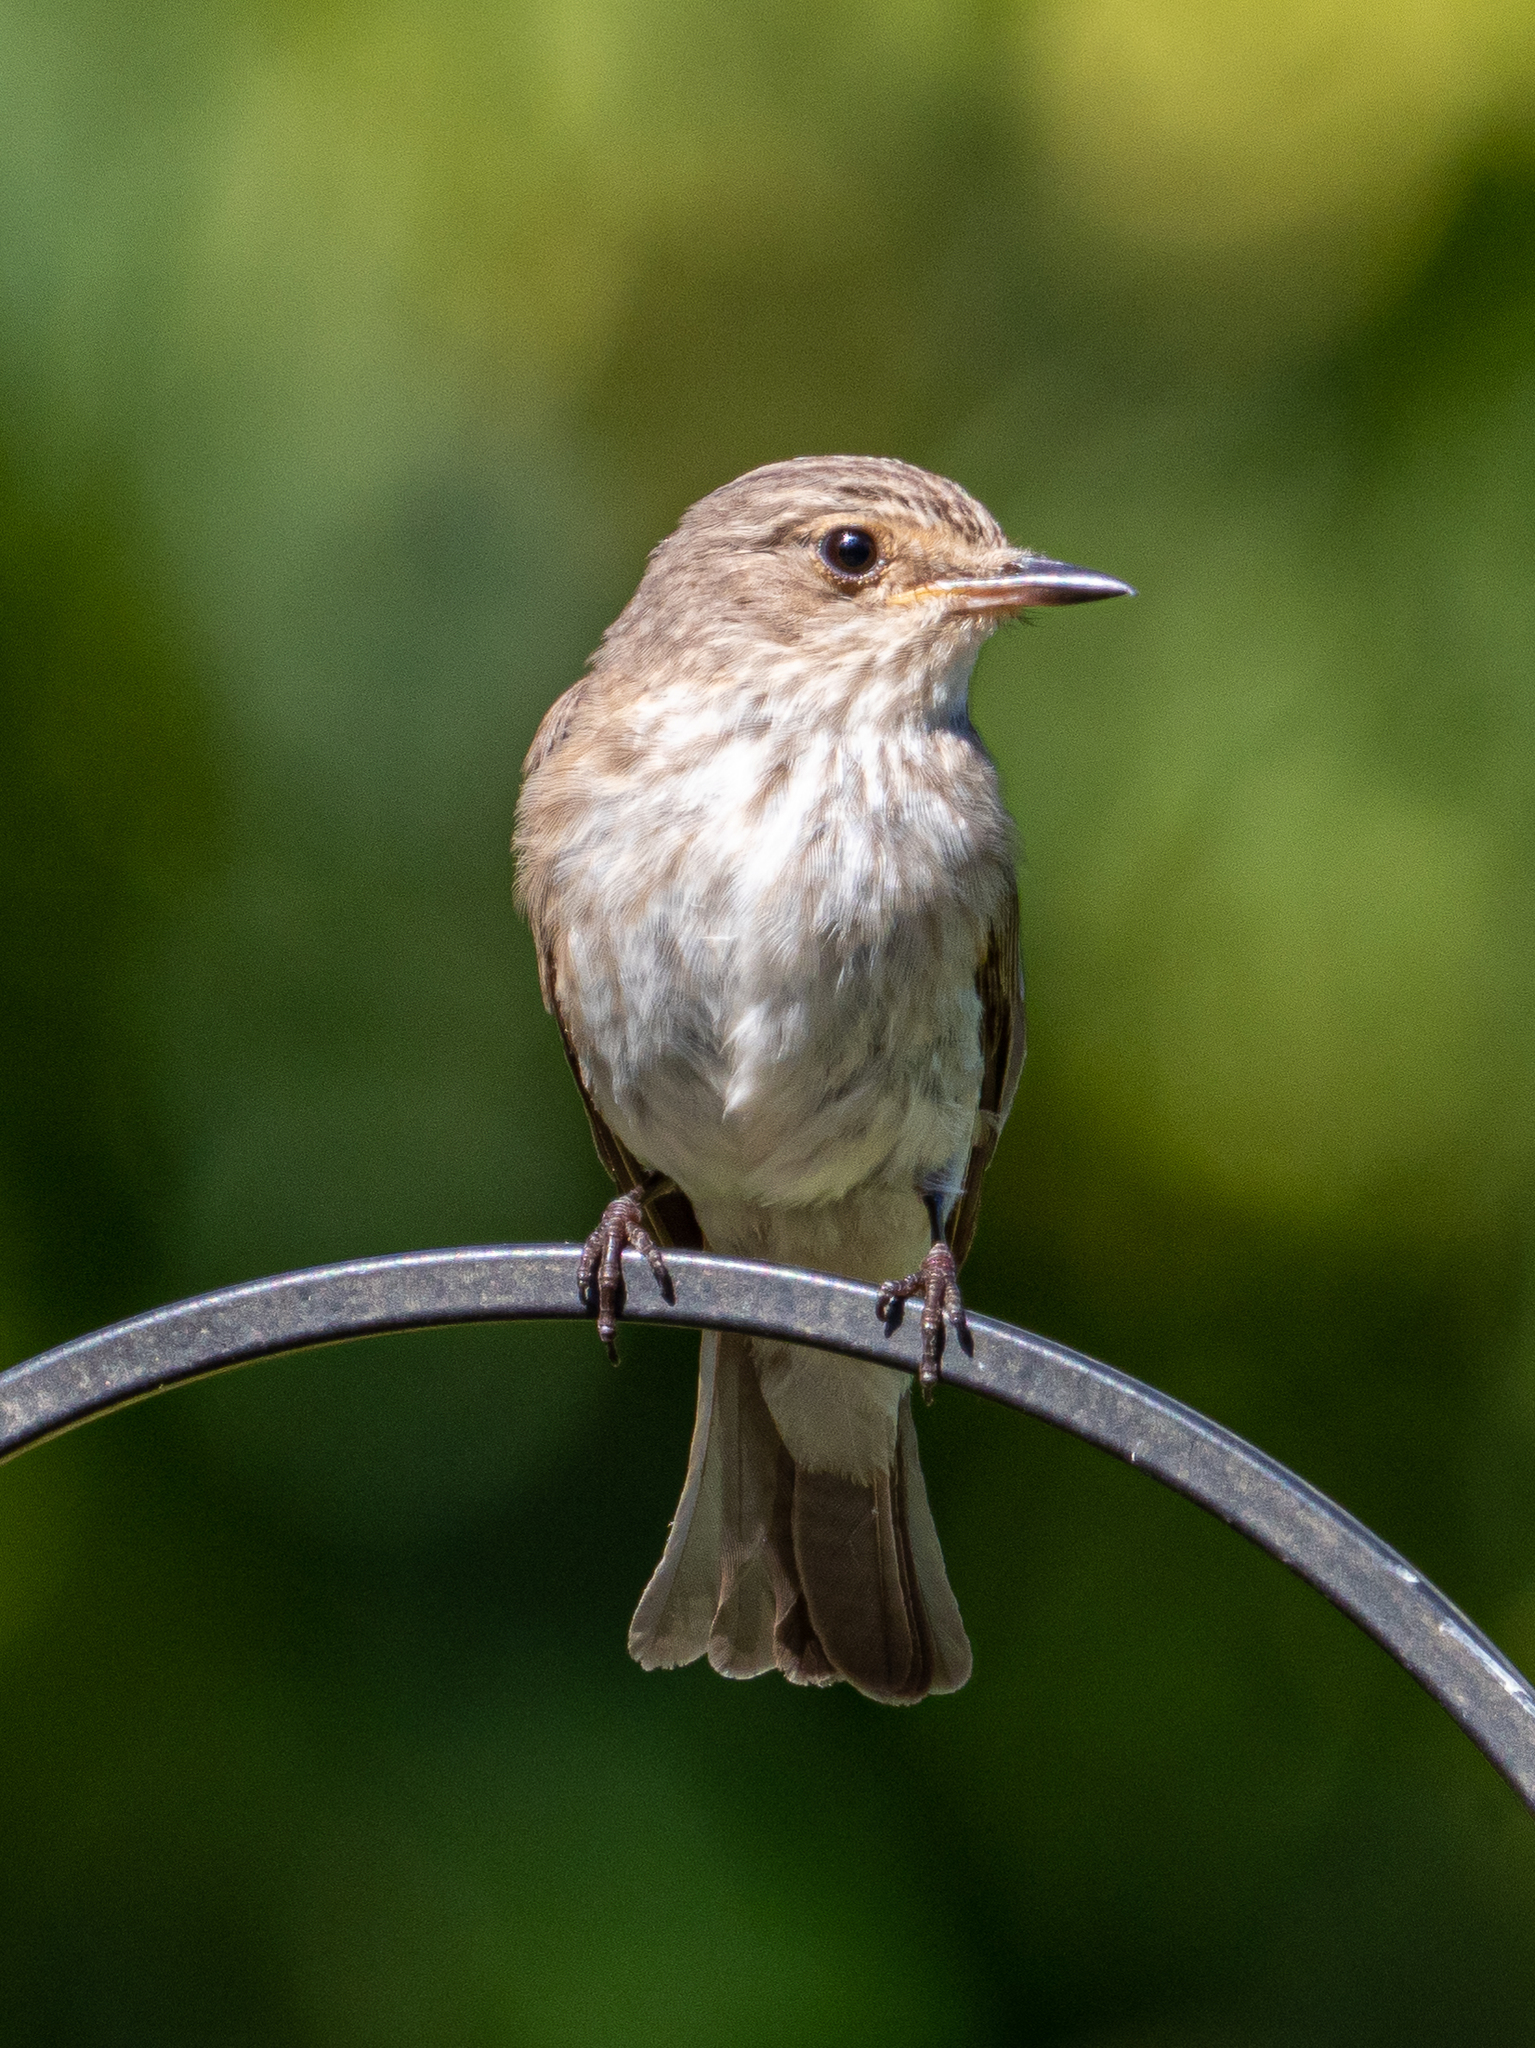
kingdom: Animalia
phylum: Chordata
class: Aves
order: Passeriformes
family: Muscicapidae
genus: Muscicapa
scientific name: Muscicapa striata
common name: Spotted flycatcher
